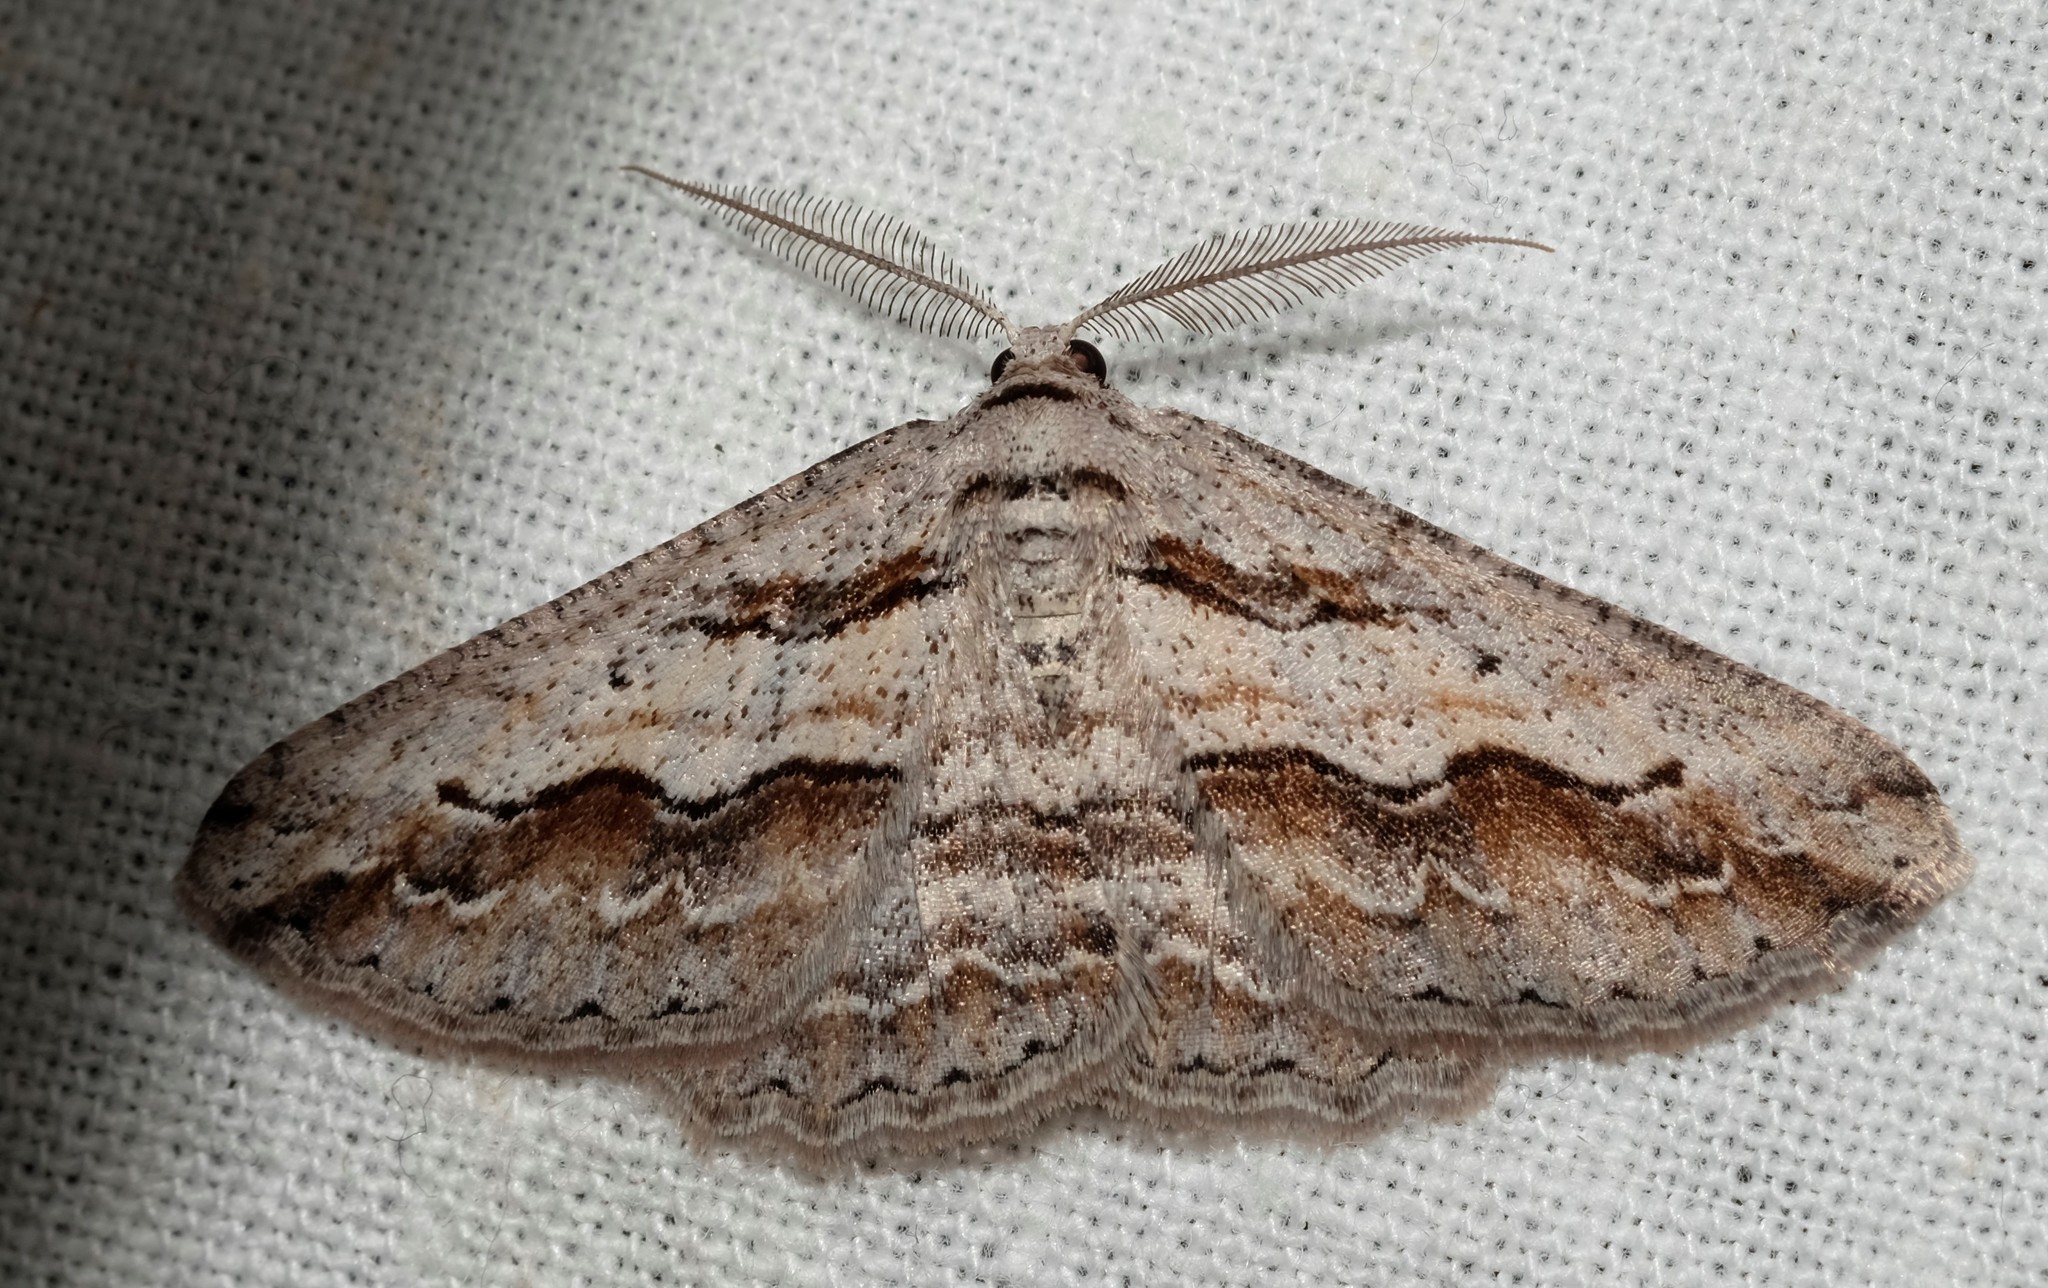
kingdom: Animalia
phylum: Arthropoda
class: Insecta
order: Lepidoptera
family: Geometridae
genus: Syneora
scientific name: Syneora mundifera
